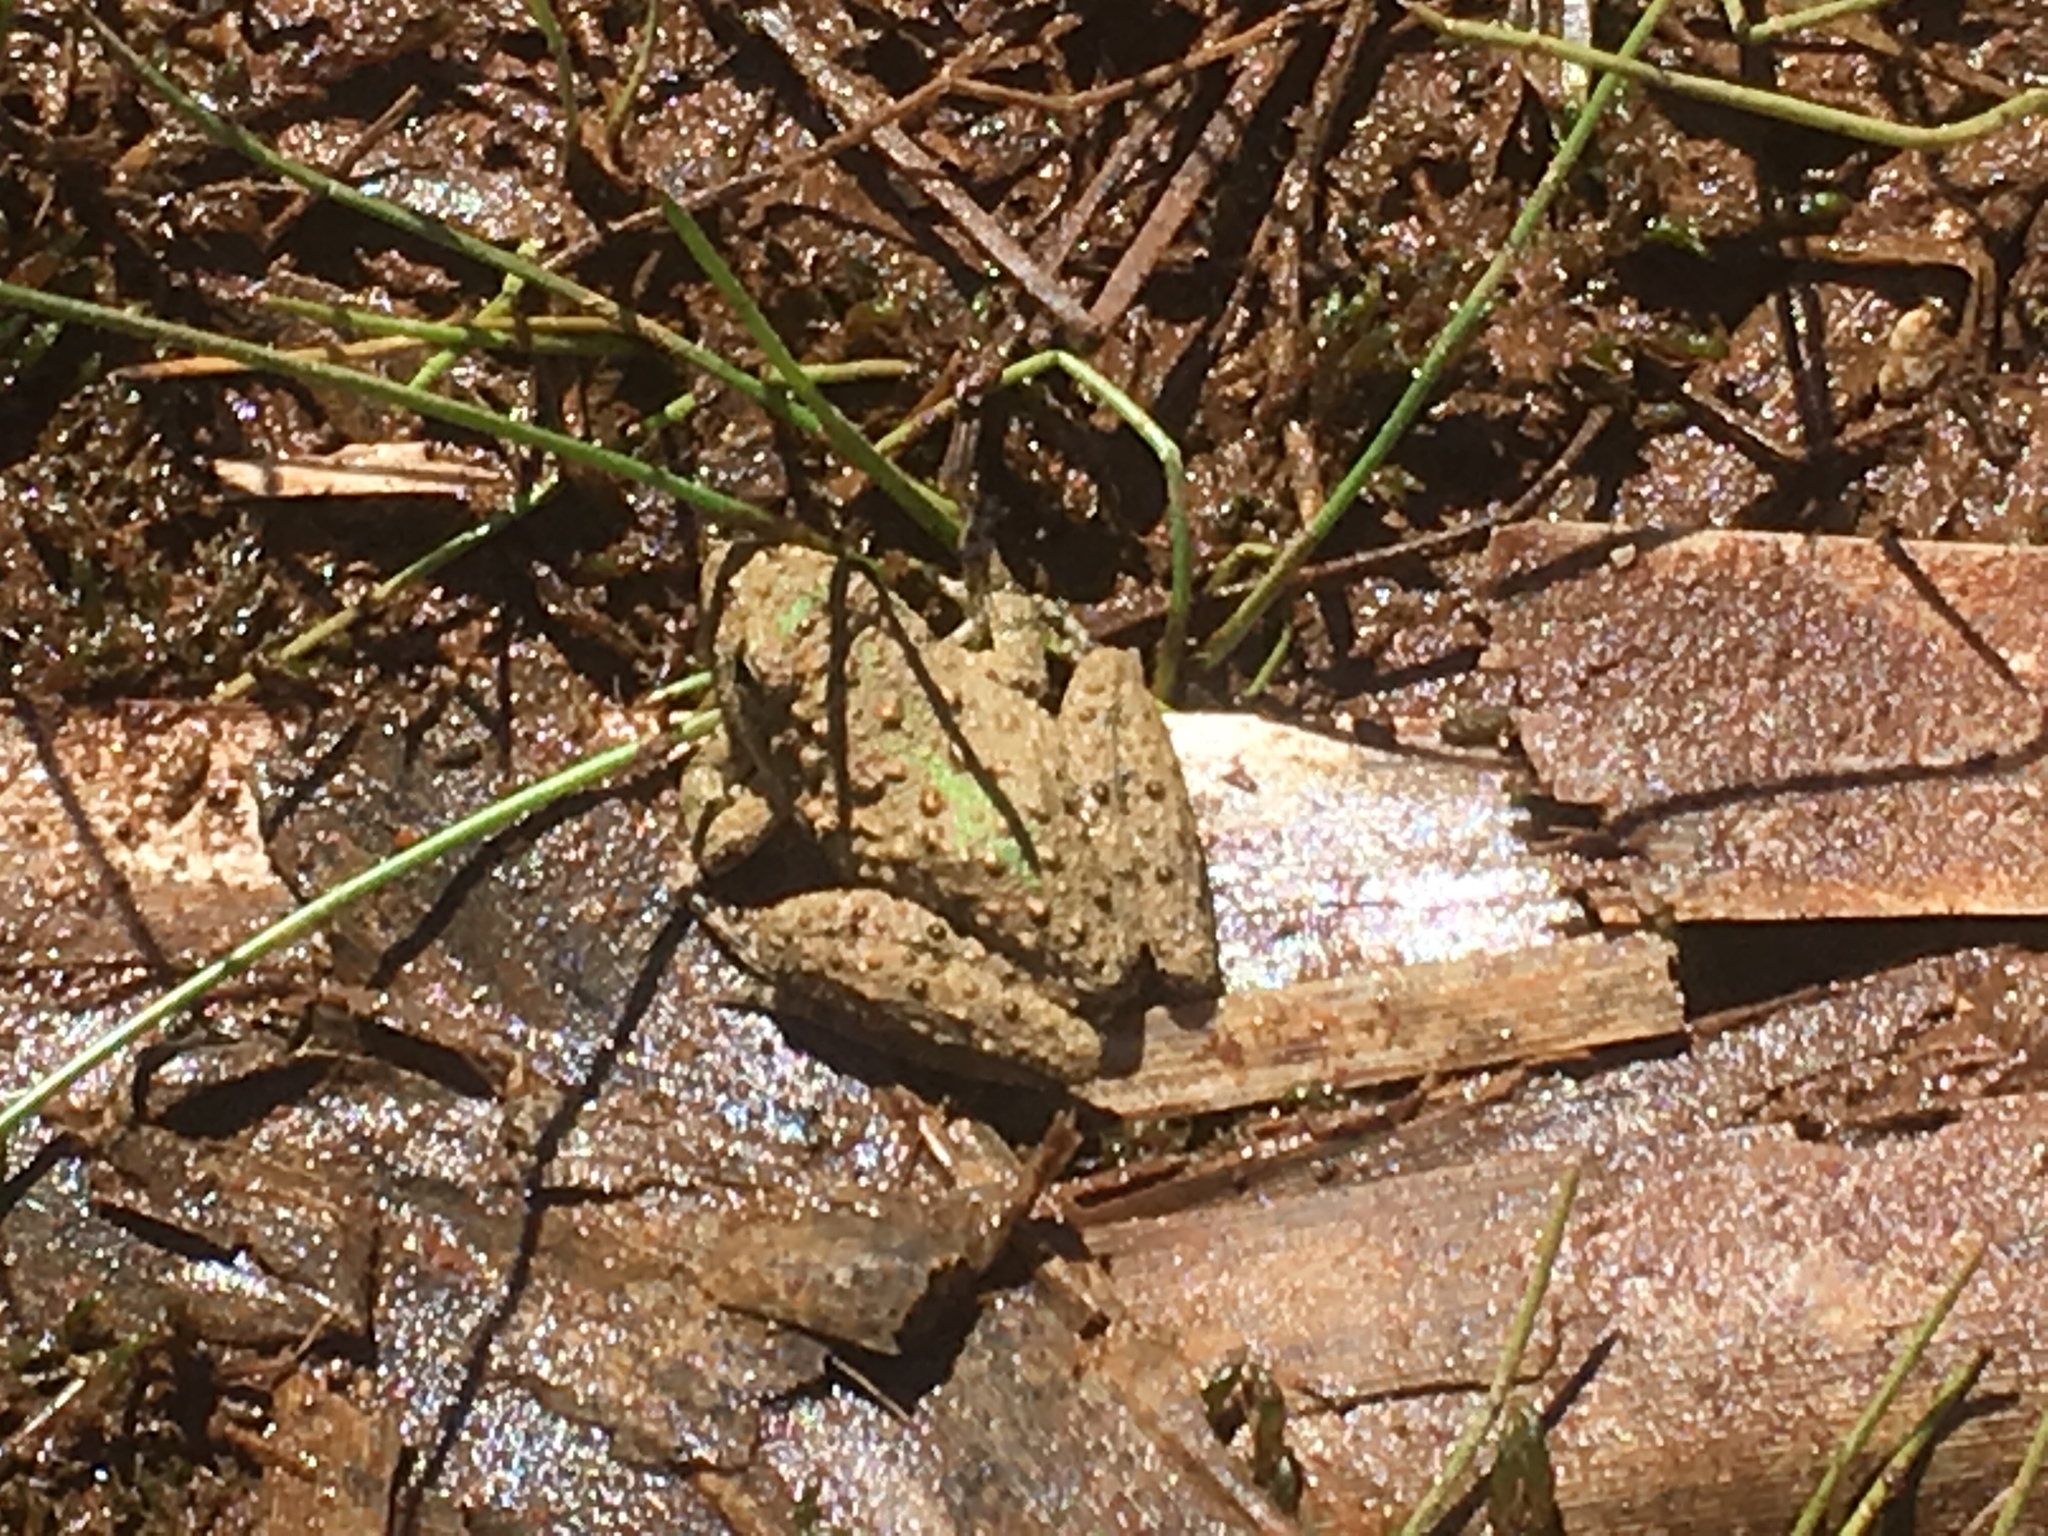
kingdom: Animalia
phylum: Chordata
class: Amphibia
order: Anura
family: Hylidae
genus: Acris
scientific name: Acris blanchardi
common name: Blanchard's cricket frog
